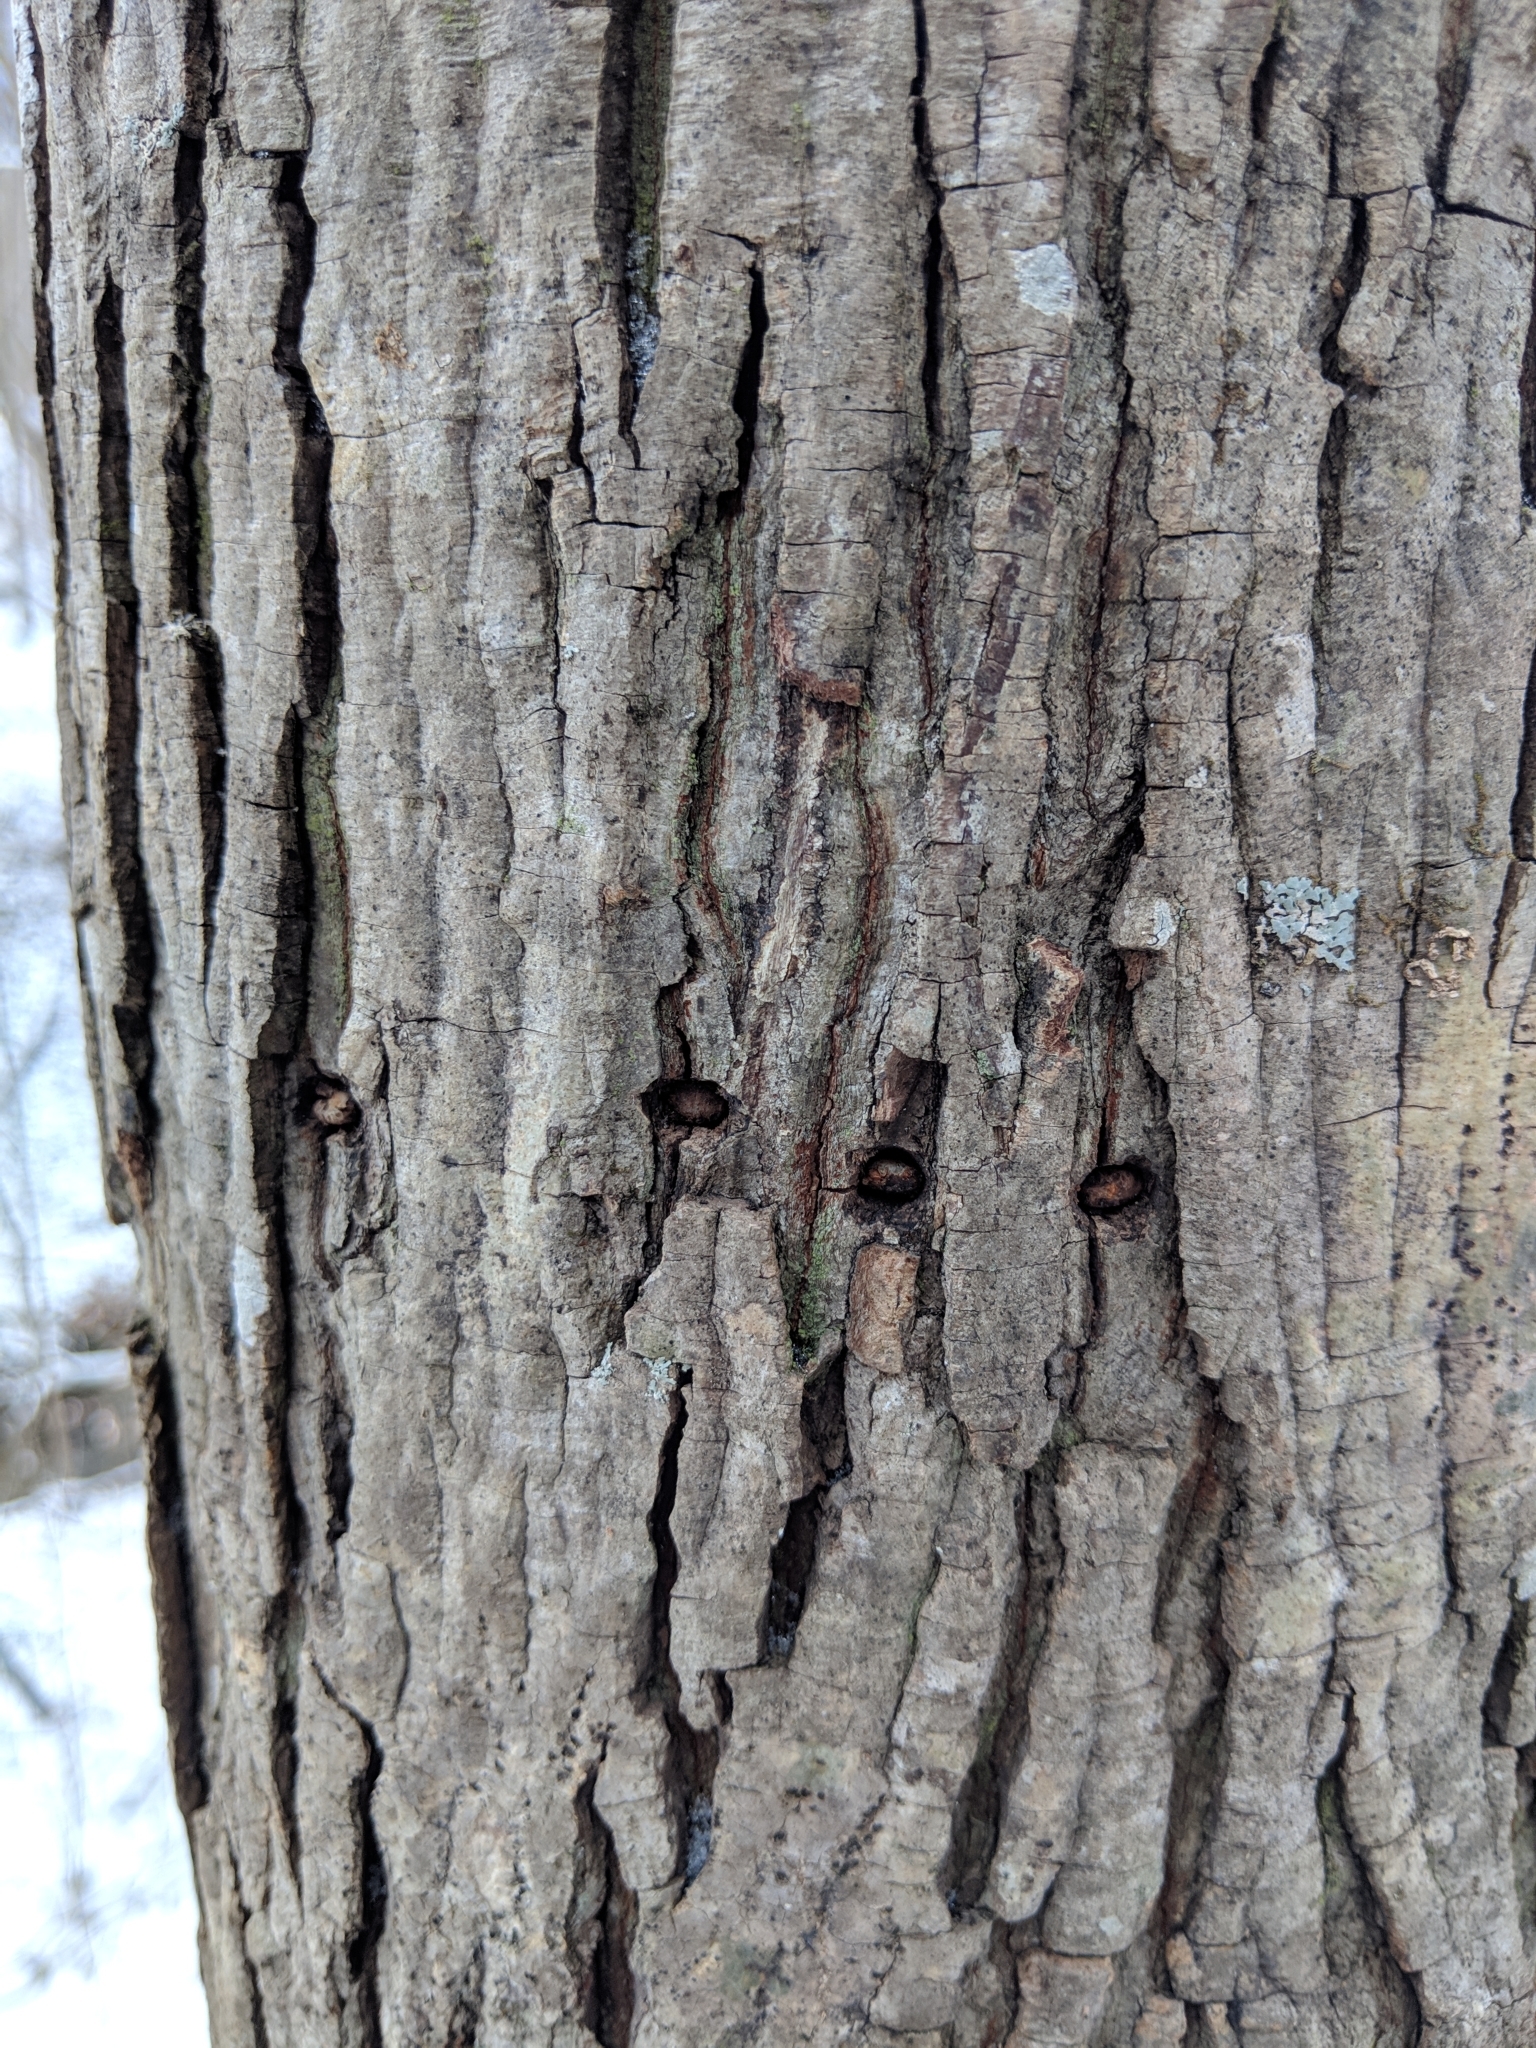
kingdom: Animalia
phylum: Chordata
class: Aves
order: Piciformes
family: Picidae
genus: Sphyrapicus
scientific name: Sphyrapicus varius
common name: Yellow-bellied sapsucker
